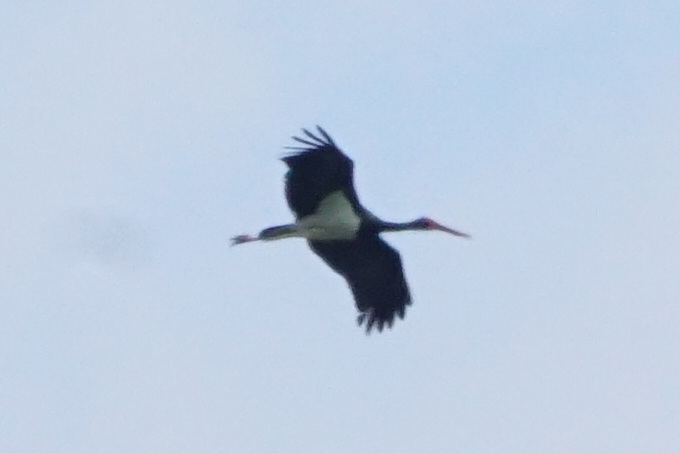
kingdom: Animalia
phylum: Chordata
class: Aves
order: Ciconiiformes
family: Ciconiidae
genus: Ciconia
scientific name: Ciconia nigra
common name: Black stork
